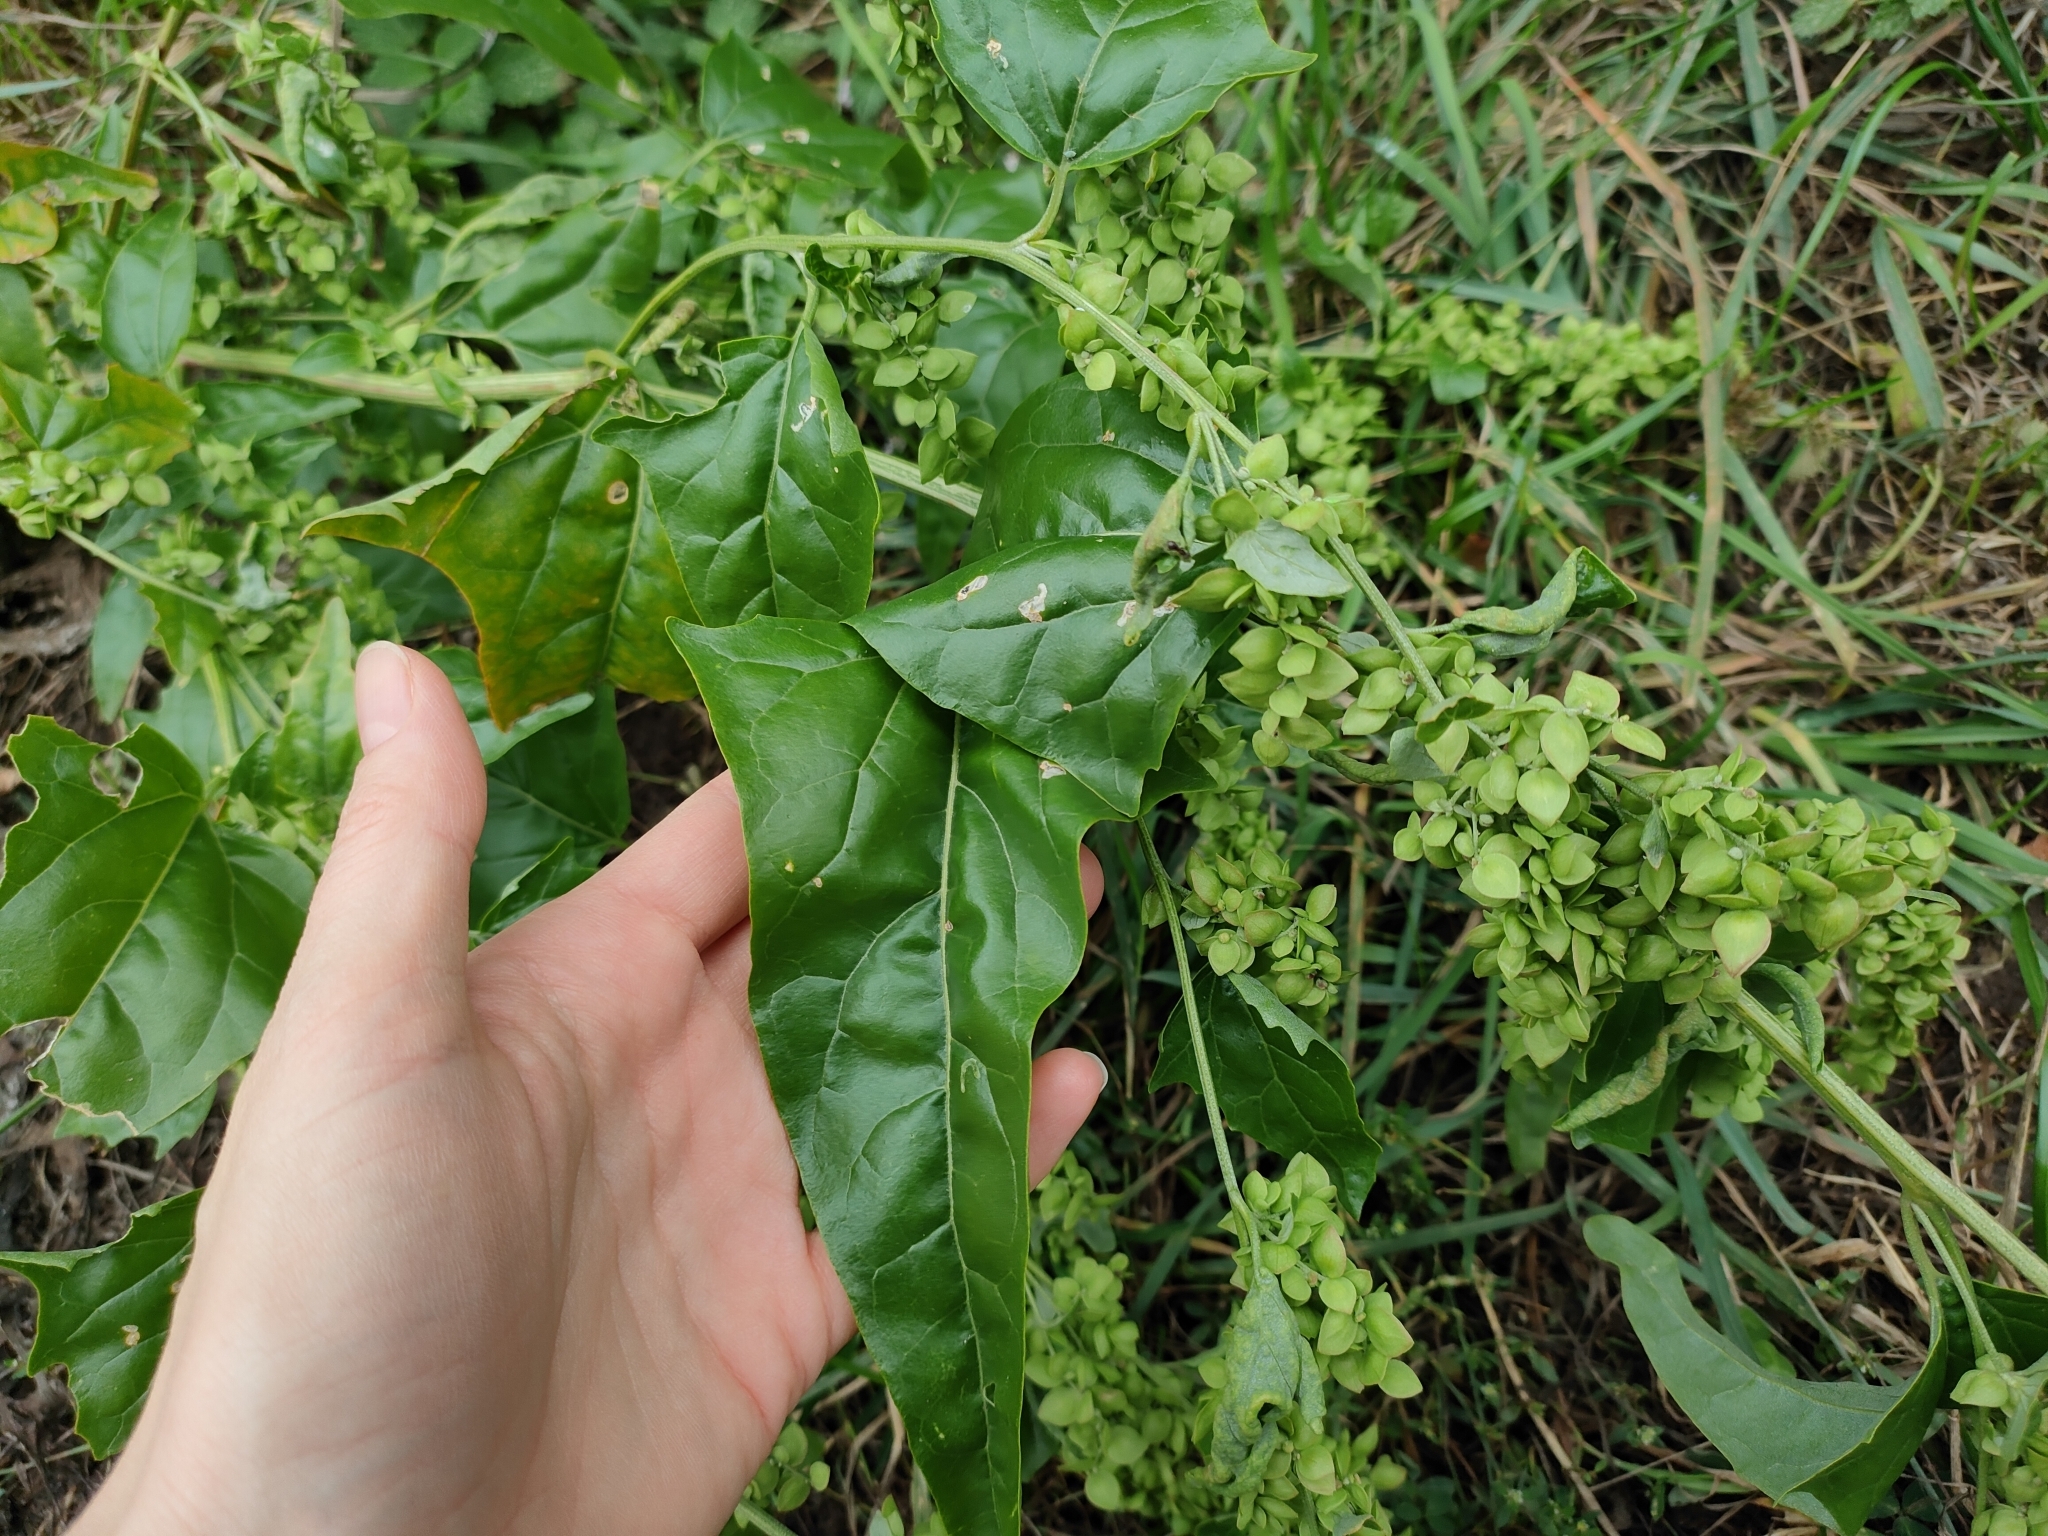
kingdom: Plantae
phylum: Tracheophyta
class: Magnoliopsida
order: Caryophyllales
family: Amaranthaceae
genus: Atriplex
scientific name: Atriplex sagittata
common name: Purple orache
